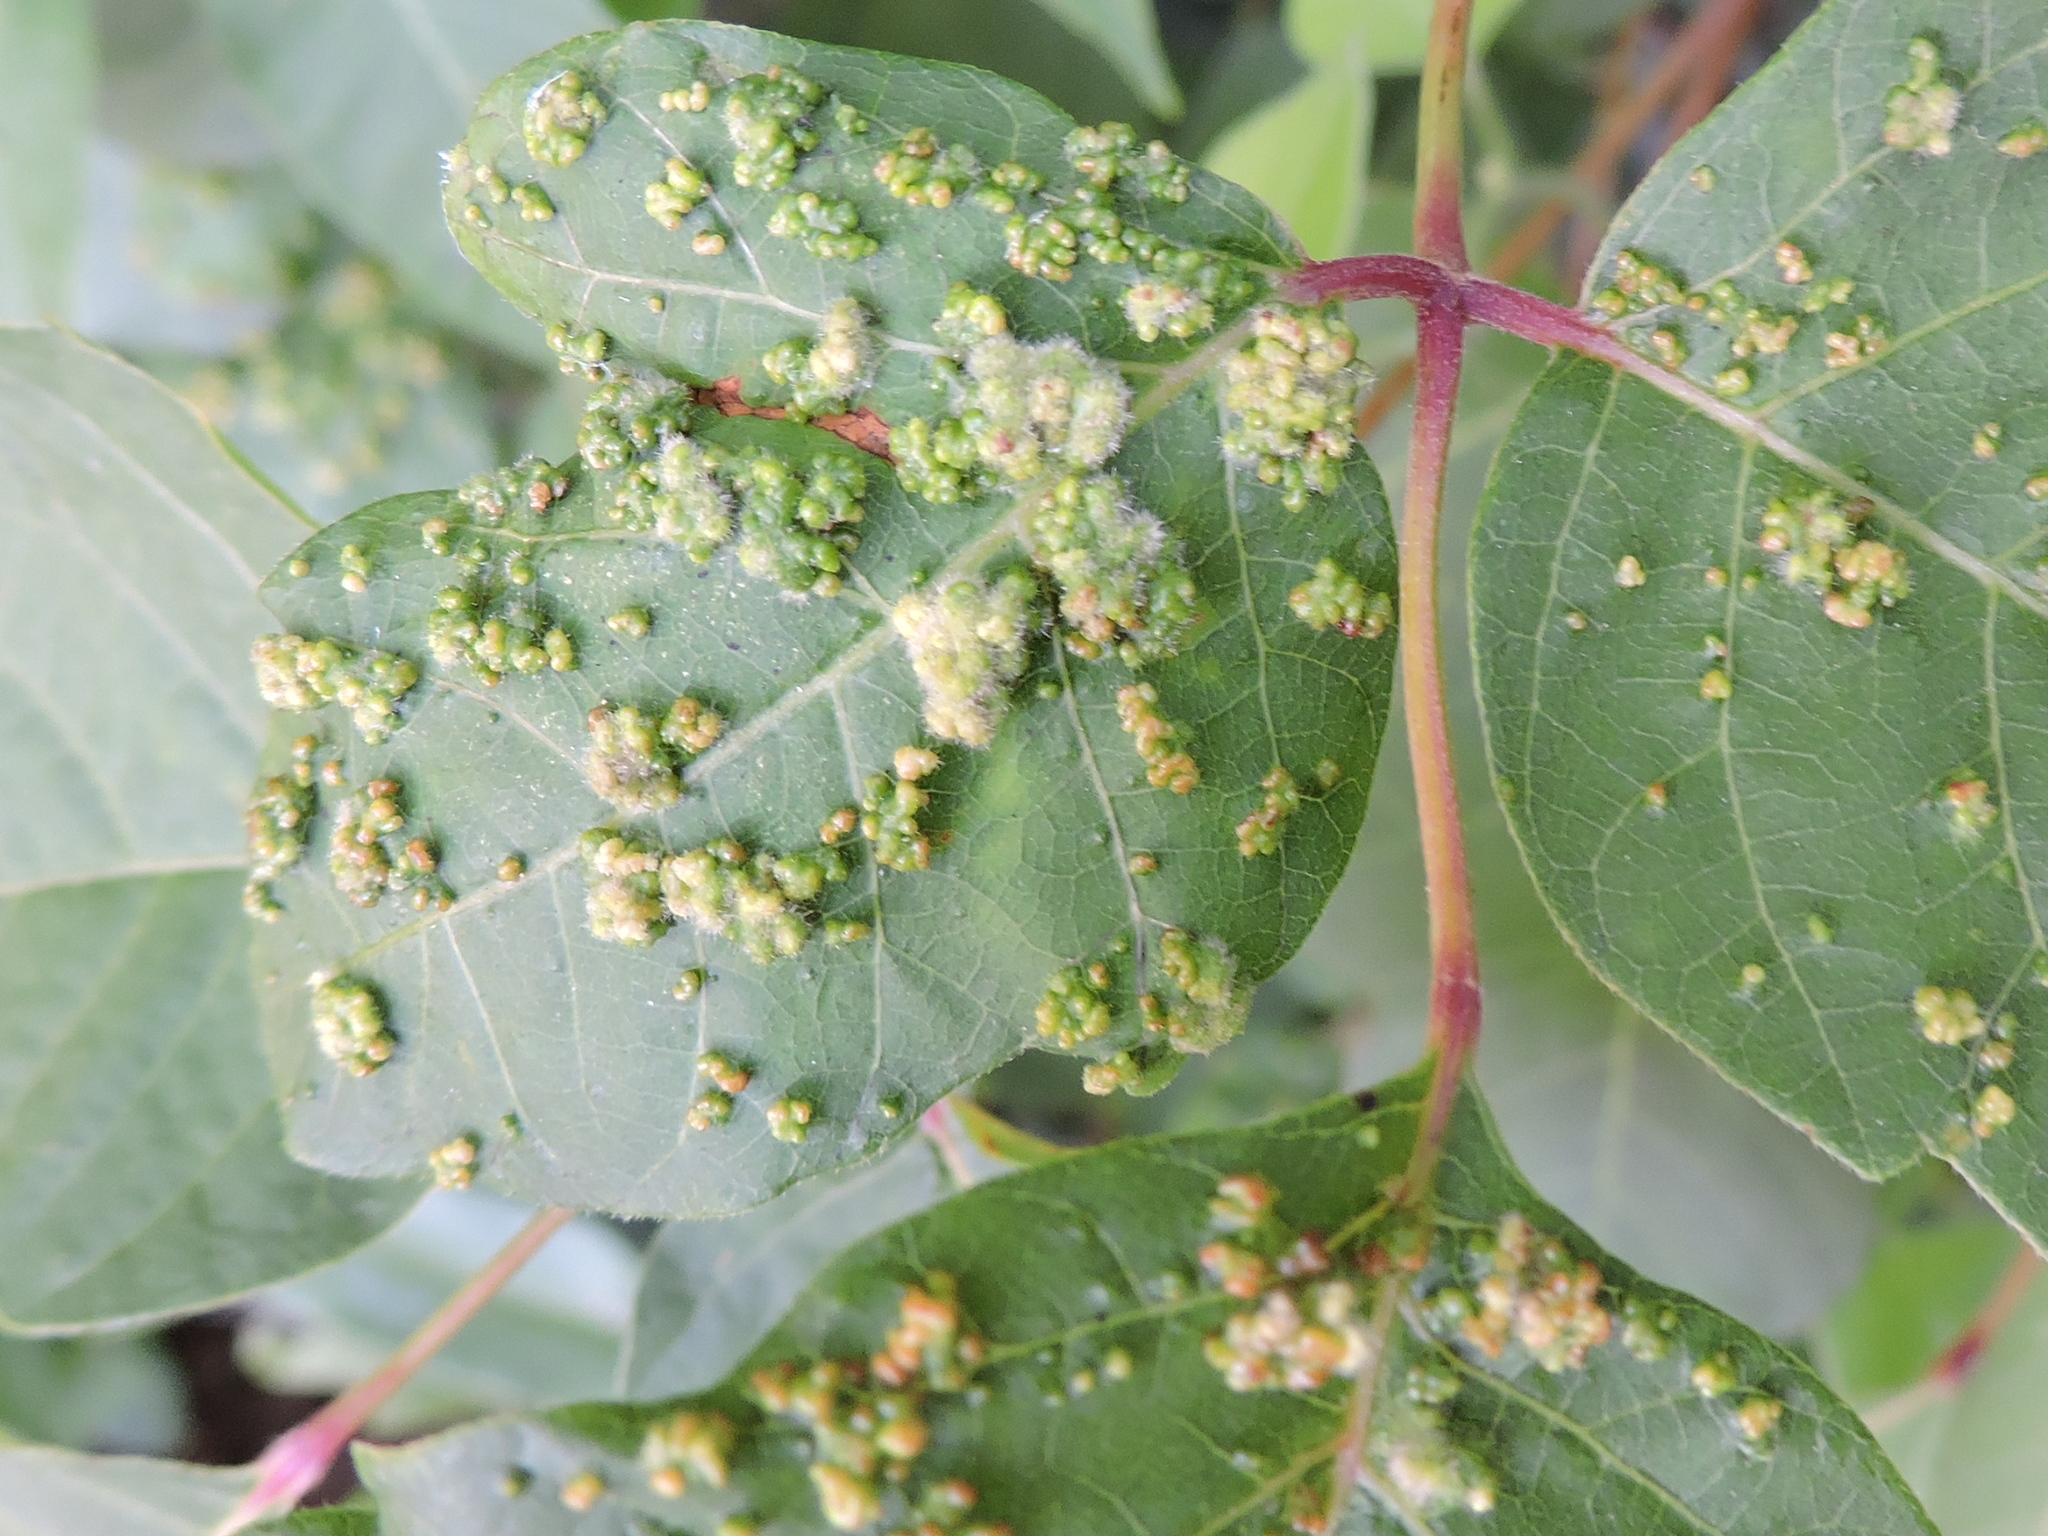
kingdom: Animalia
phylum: Arthropoda
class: Arachnida
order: Trombidiformes
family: Eriophyidae
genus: Aculops
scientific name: Aculops
